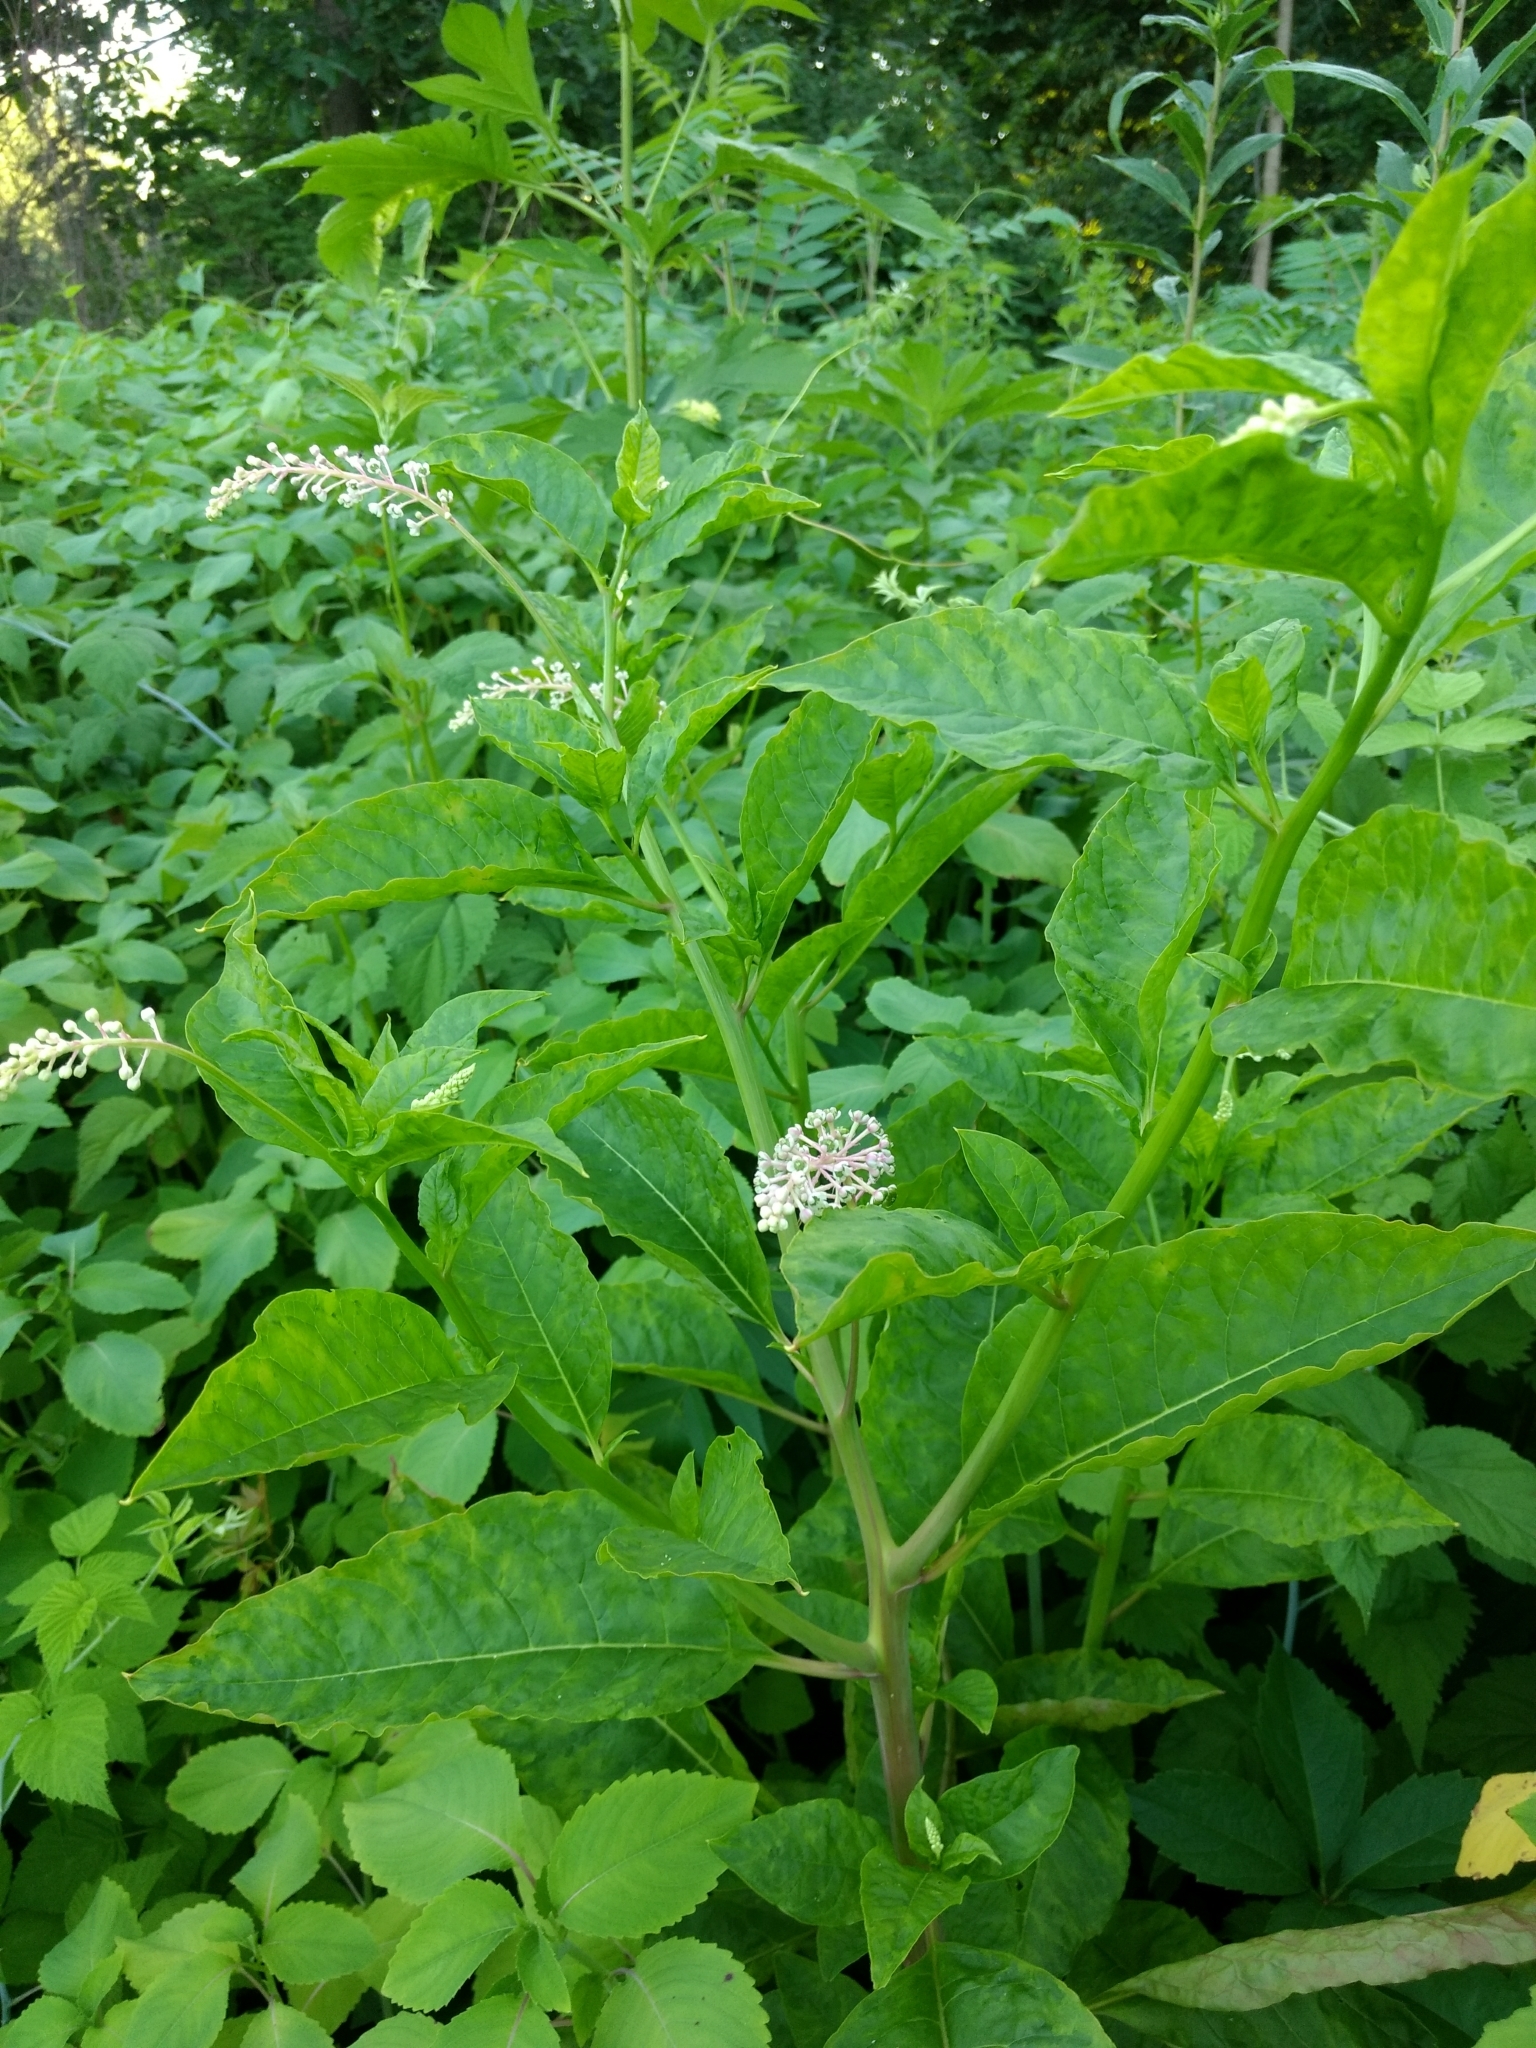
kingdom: Viruses
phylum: Pisuviricota
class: Stelpaviricetes
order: Patatavirales
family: Potyviridae
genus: Potyvirus
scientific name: Potyvirus Pokeweed mosaic virus
